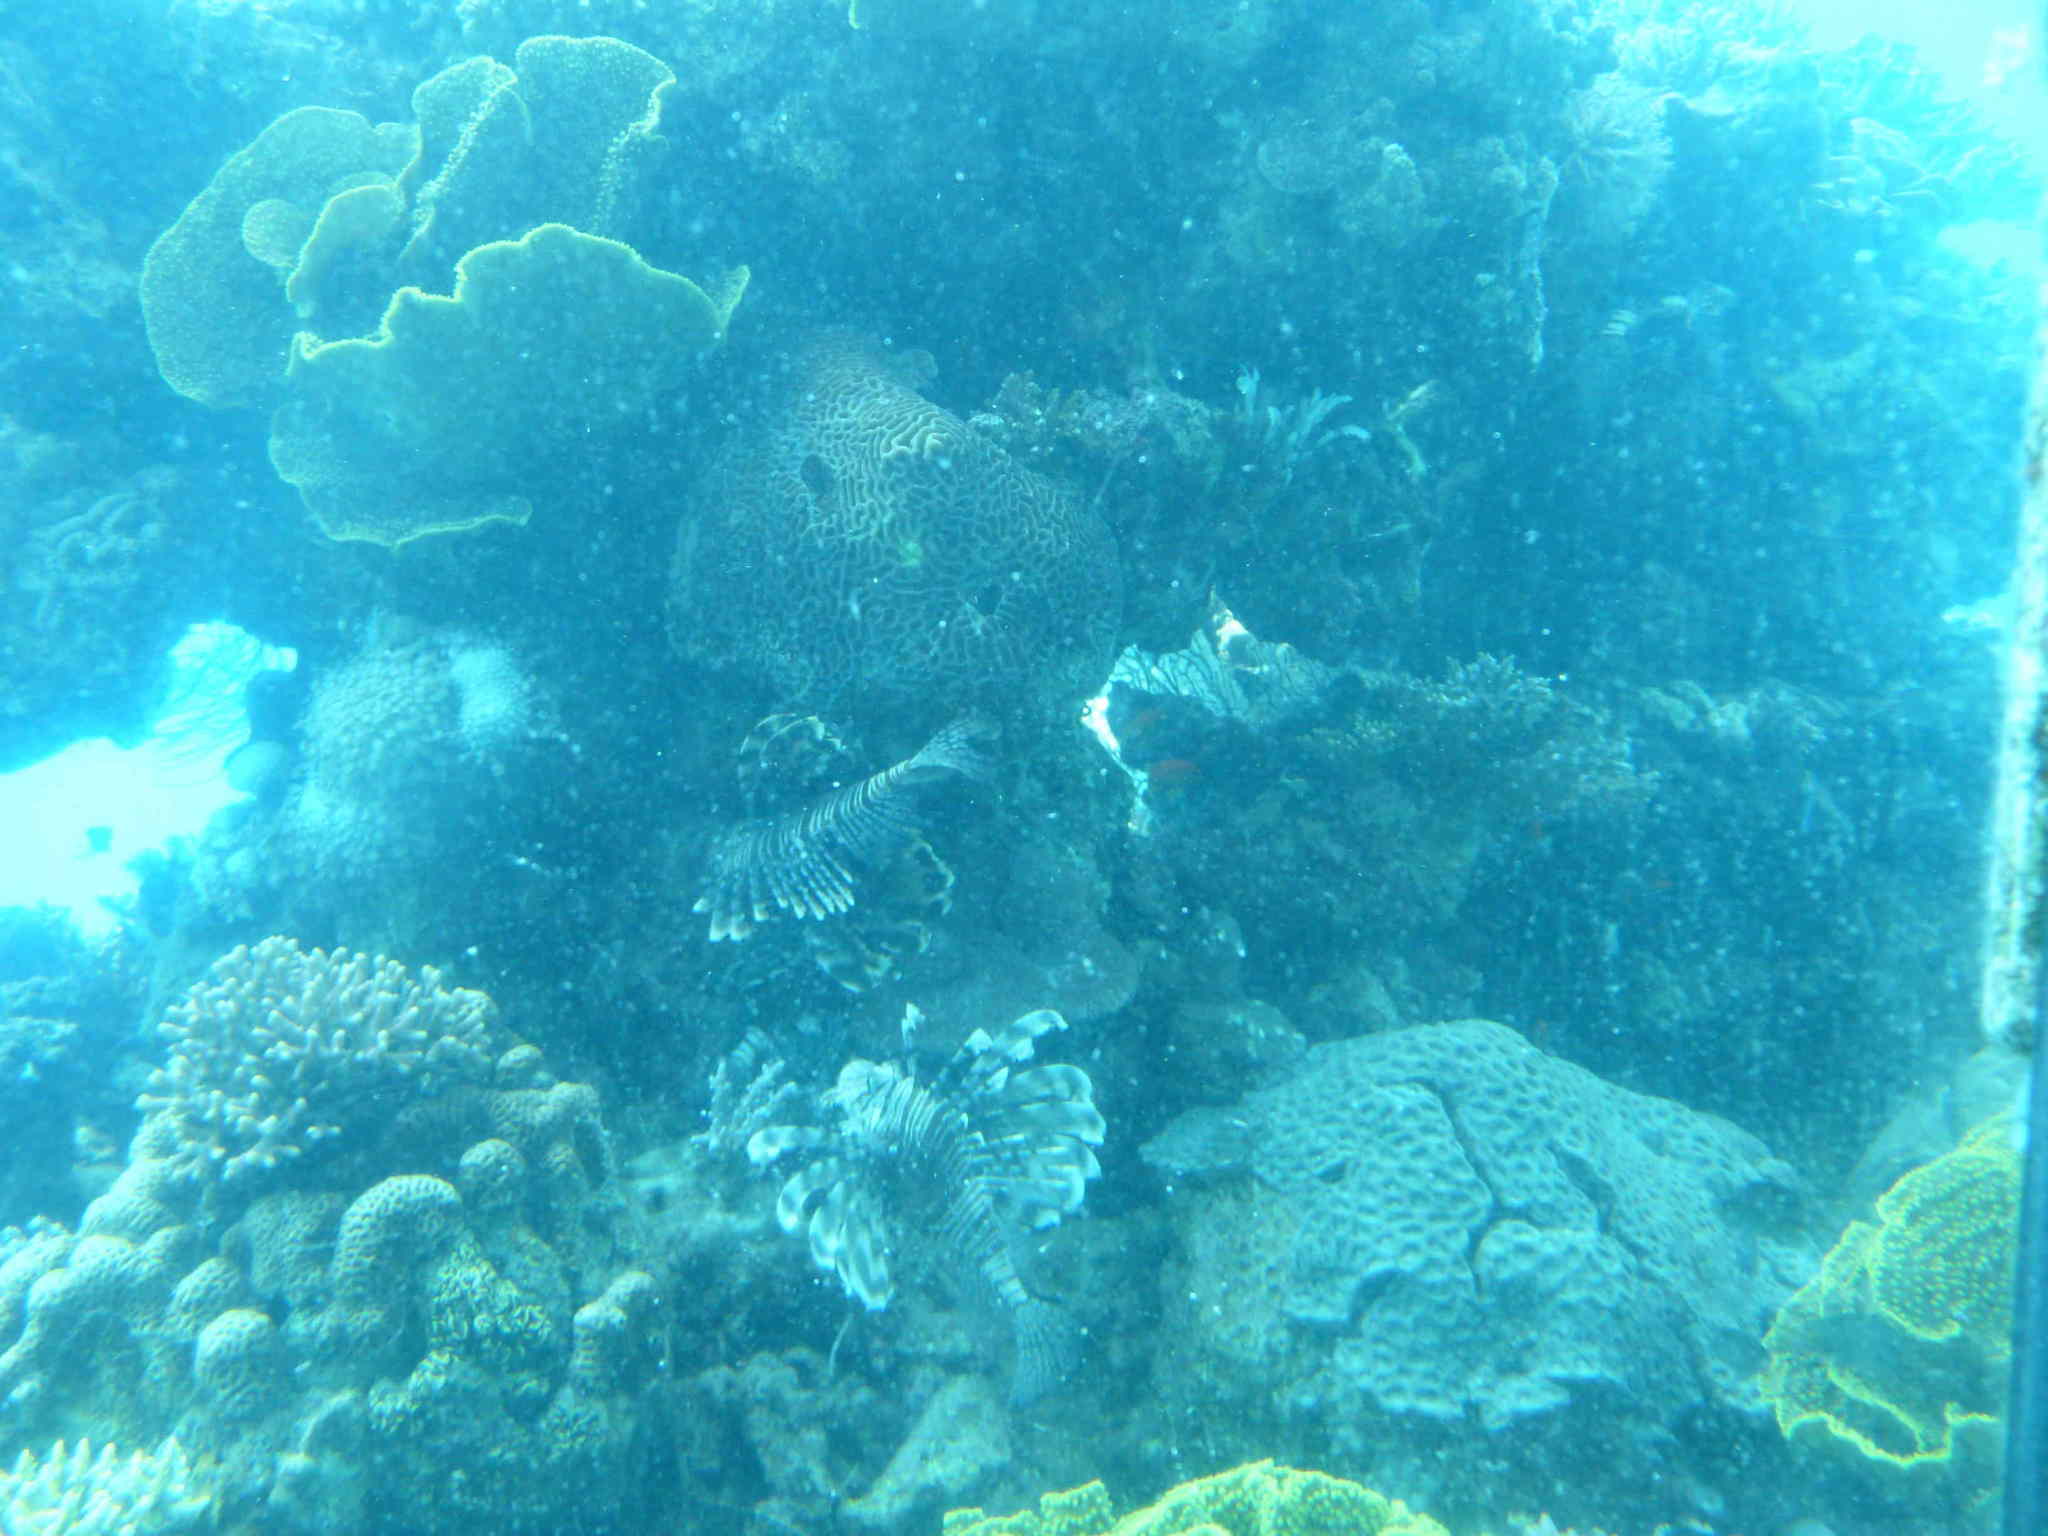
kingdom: Animalia
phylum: Chordata
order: Scorpaeniformes
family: Scorpaenidae
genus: Pterois
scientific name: Pterois miles
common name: Devil firefish
